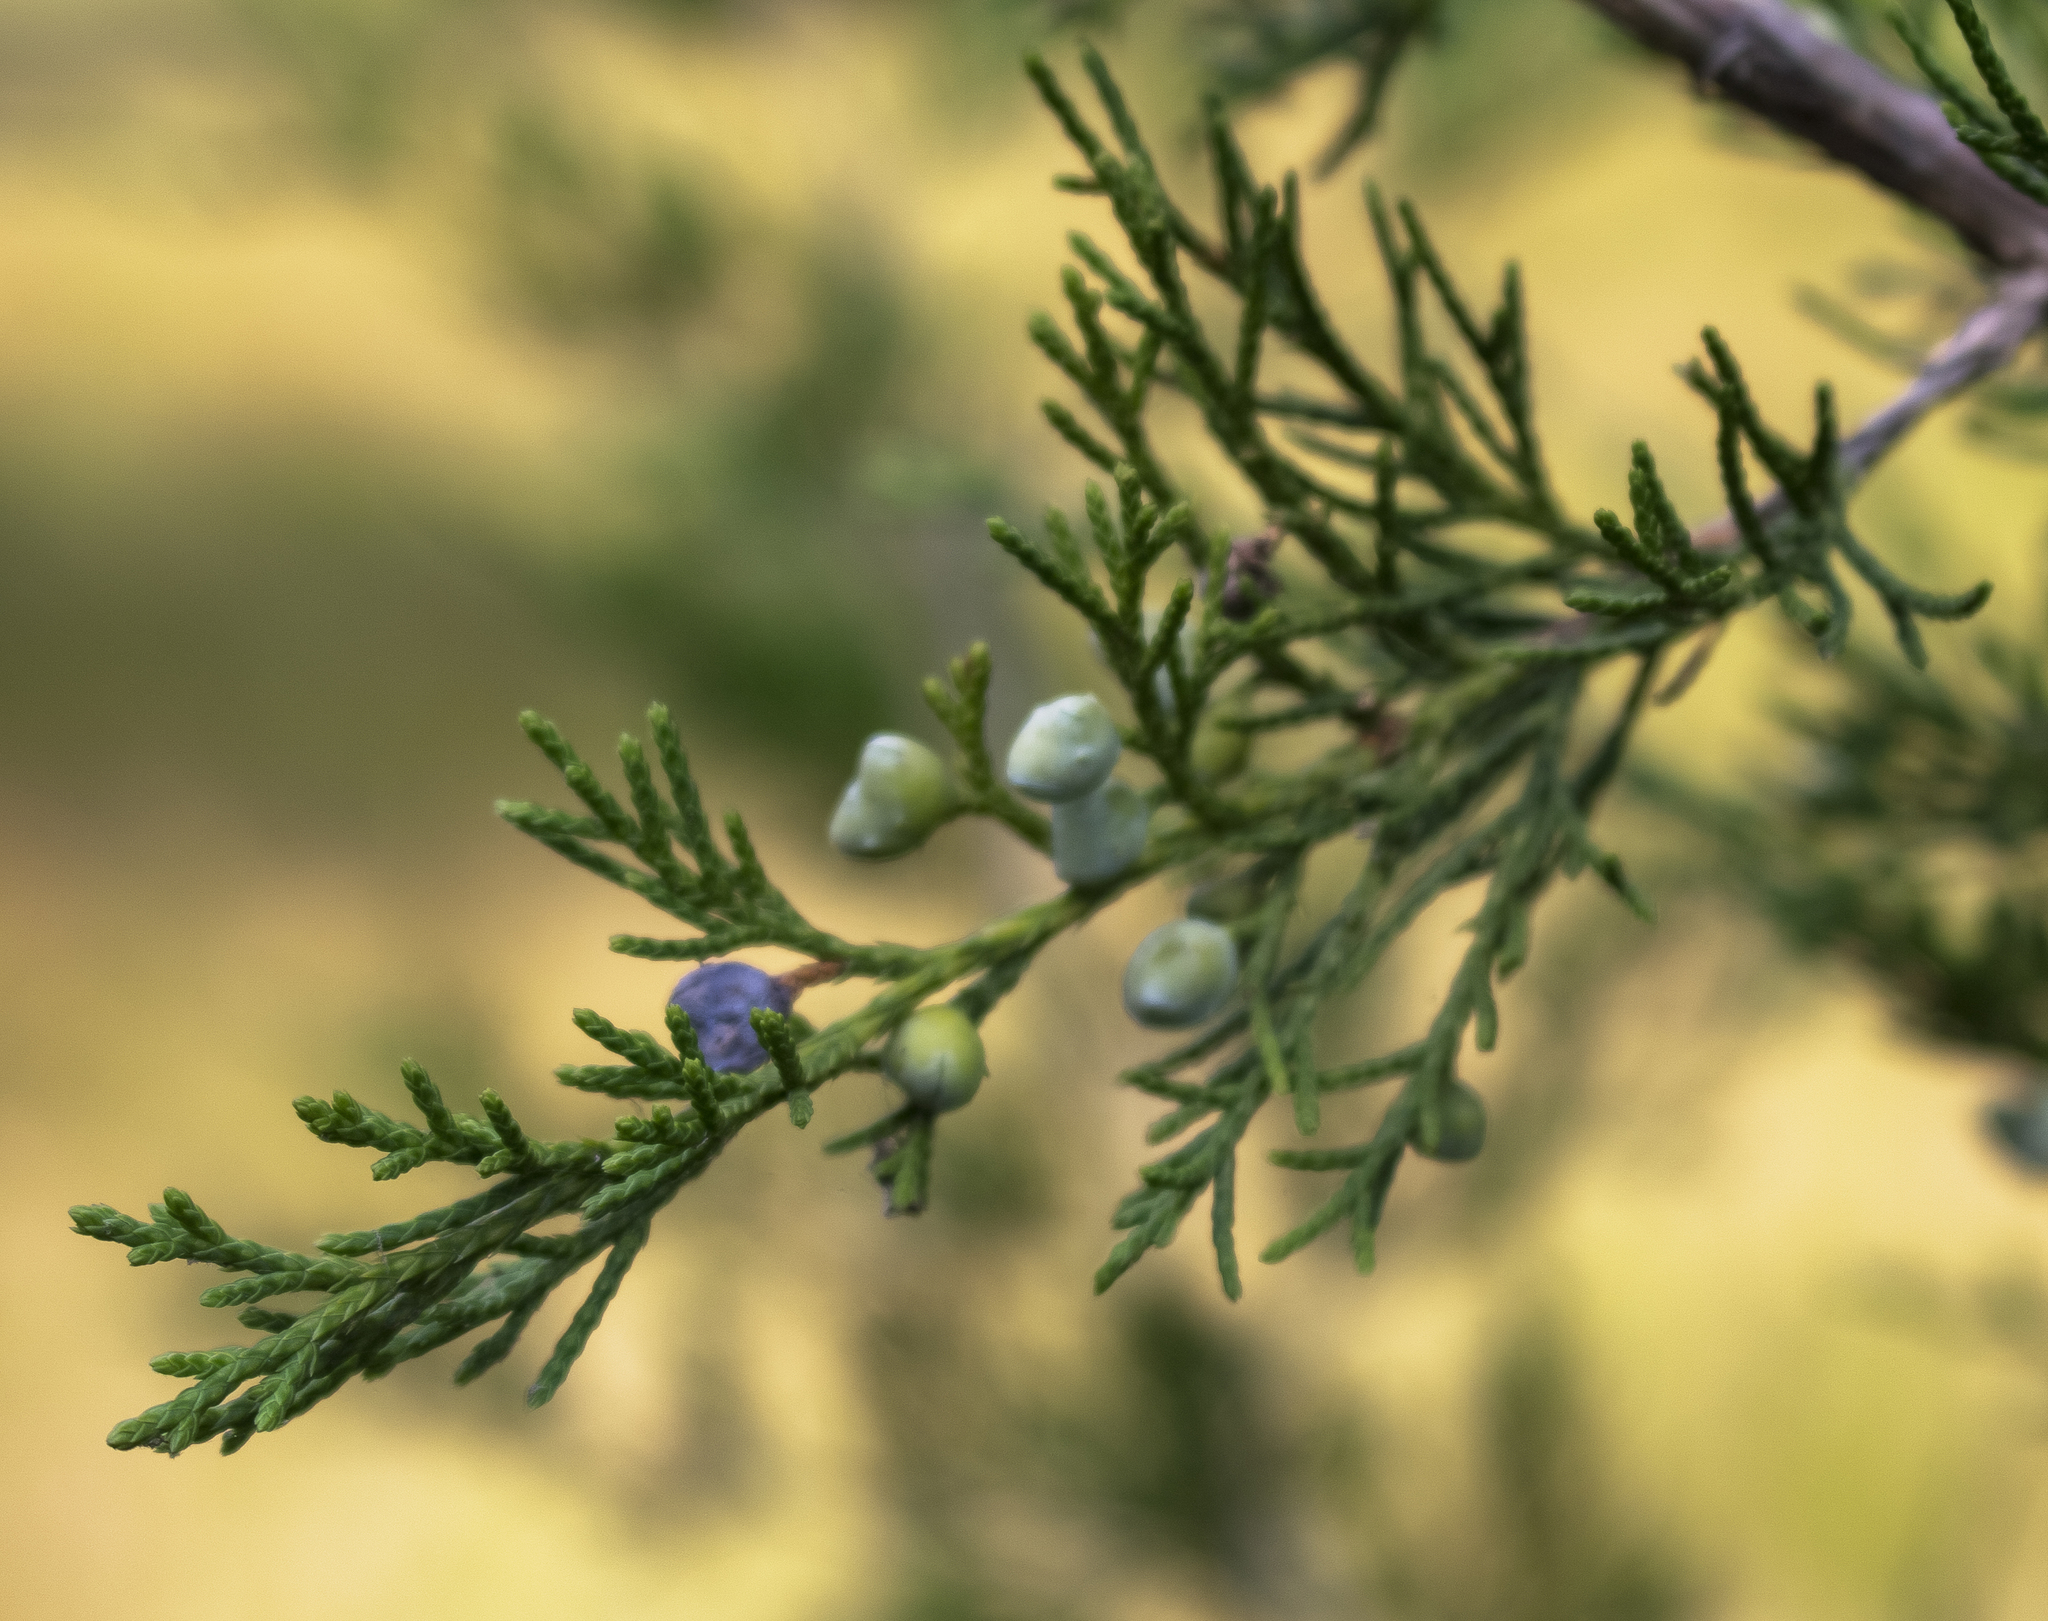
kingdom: Plantae
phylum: Tracheophyta
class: Pinopsida
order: Pinales
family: Cupressaceae
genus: Juniperus
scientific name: Juniperus virginiana
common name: Red juniper
